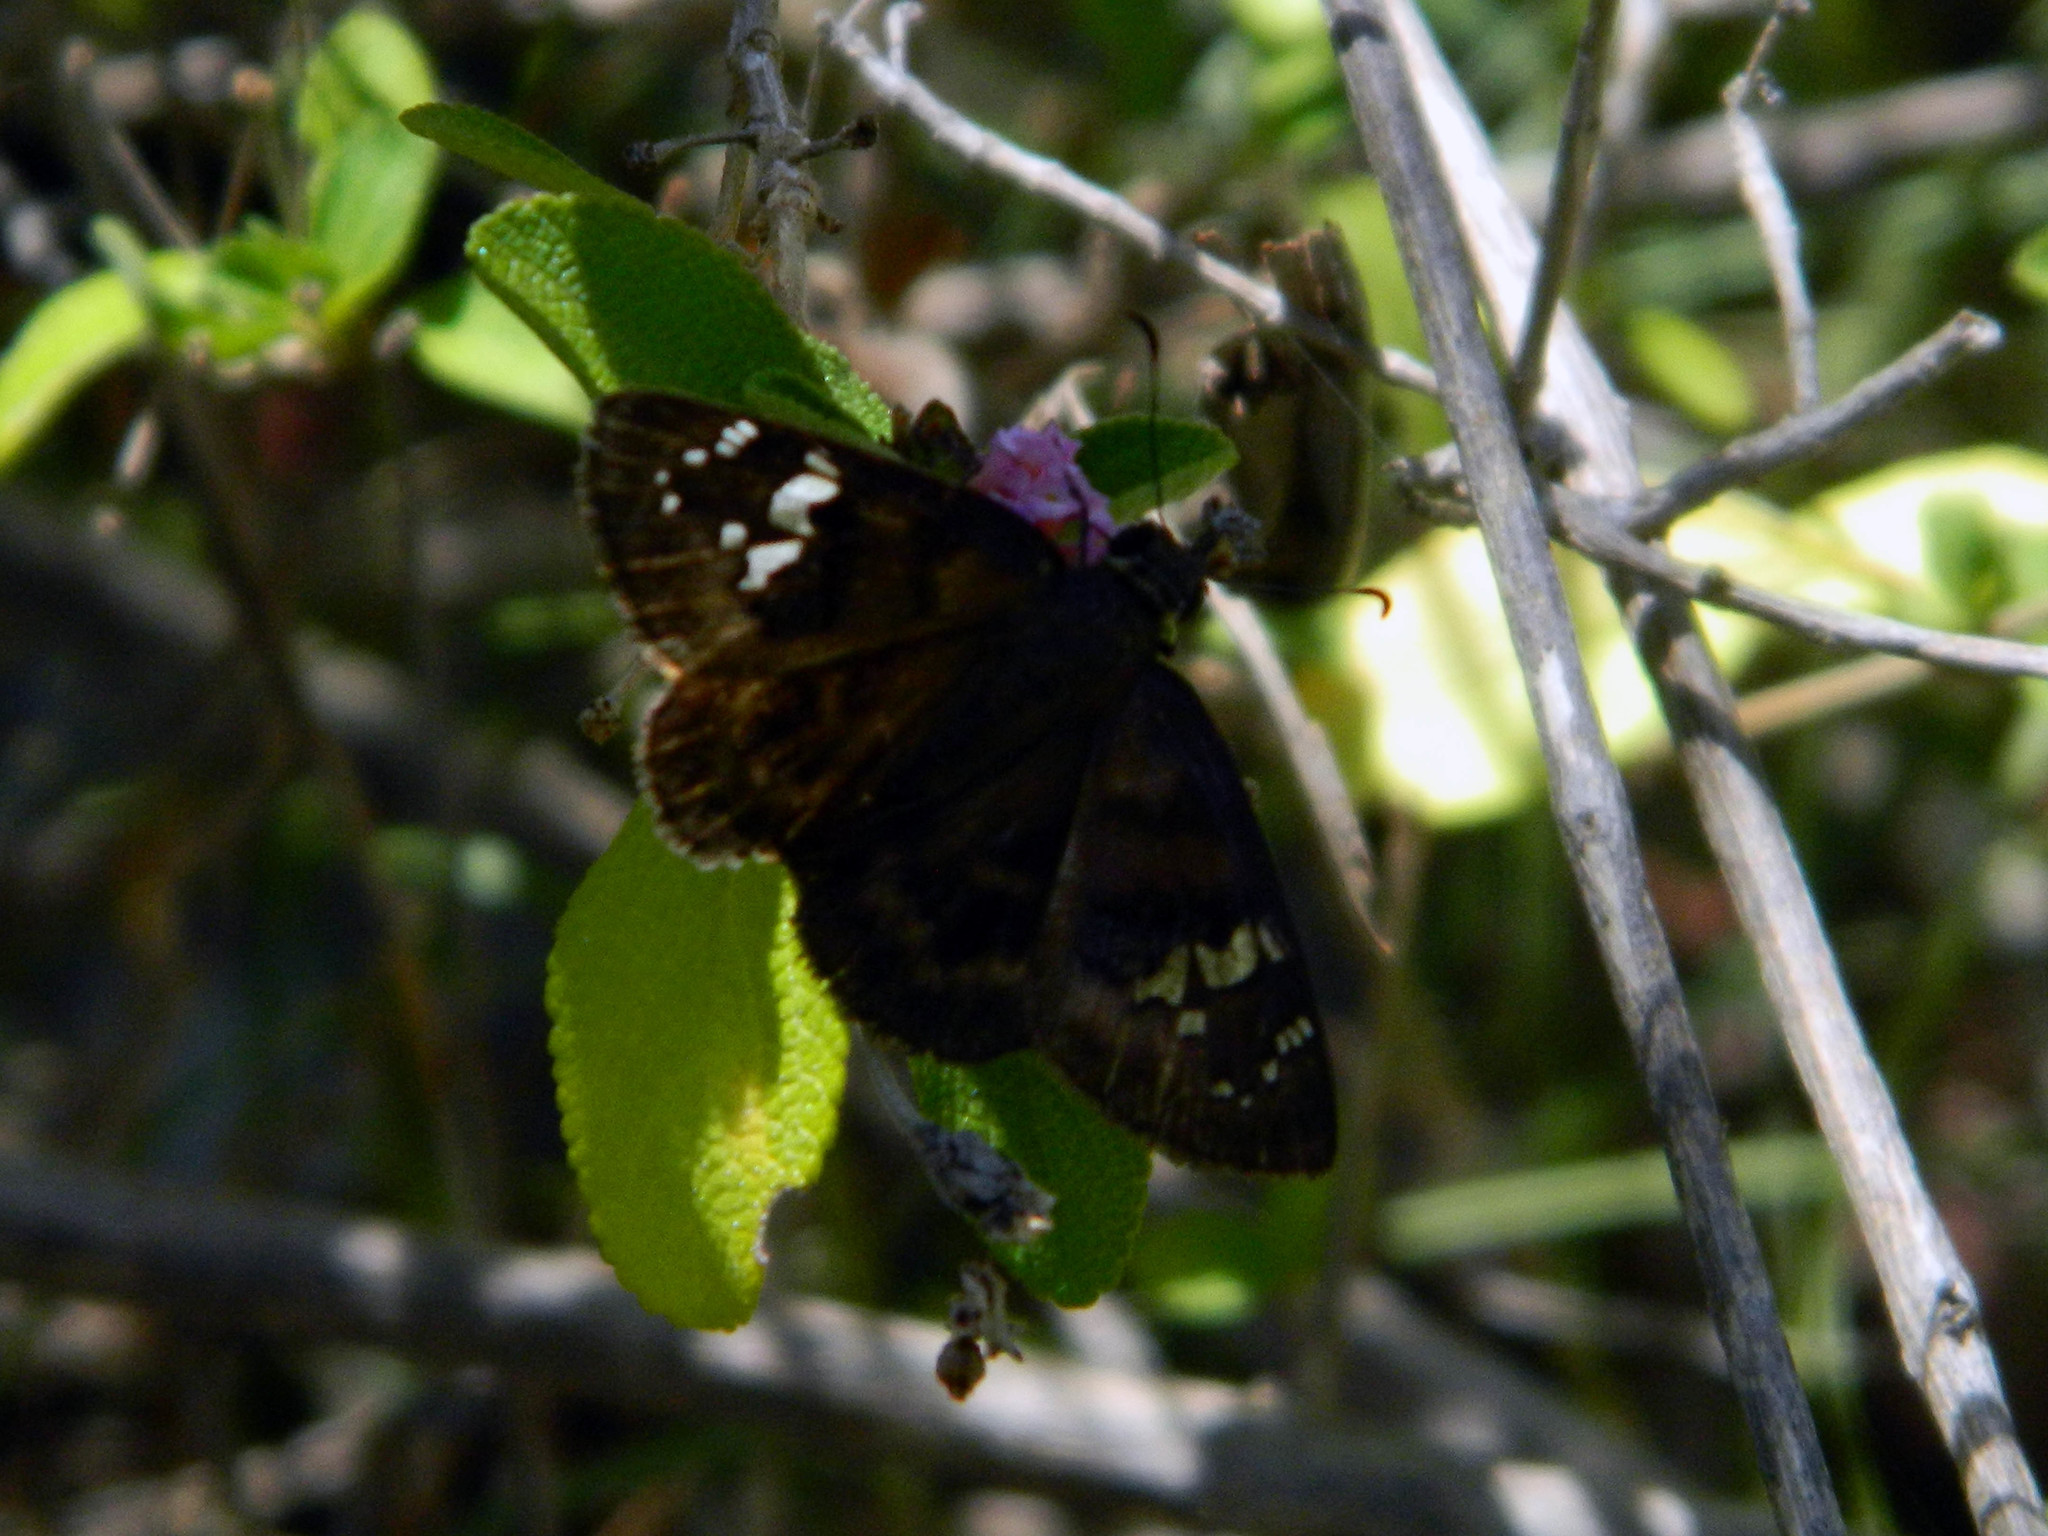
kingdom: Animalia
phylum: Arthropoda
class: Insecta
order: Lepidoptera
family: Hesperiidae
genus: Ephyriades
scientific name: Ephyriades zephodes
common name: Zephodes duskywing
